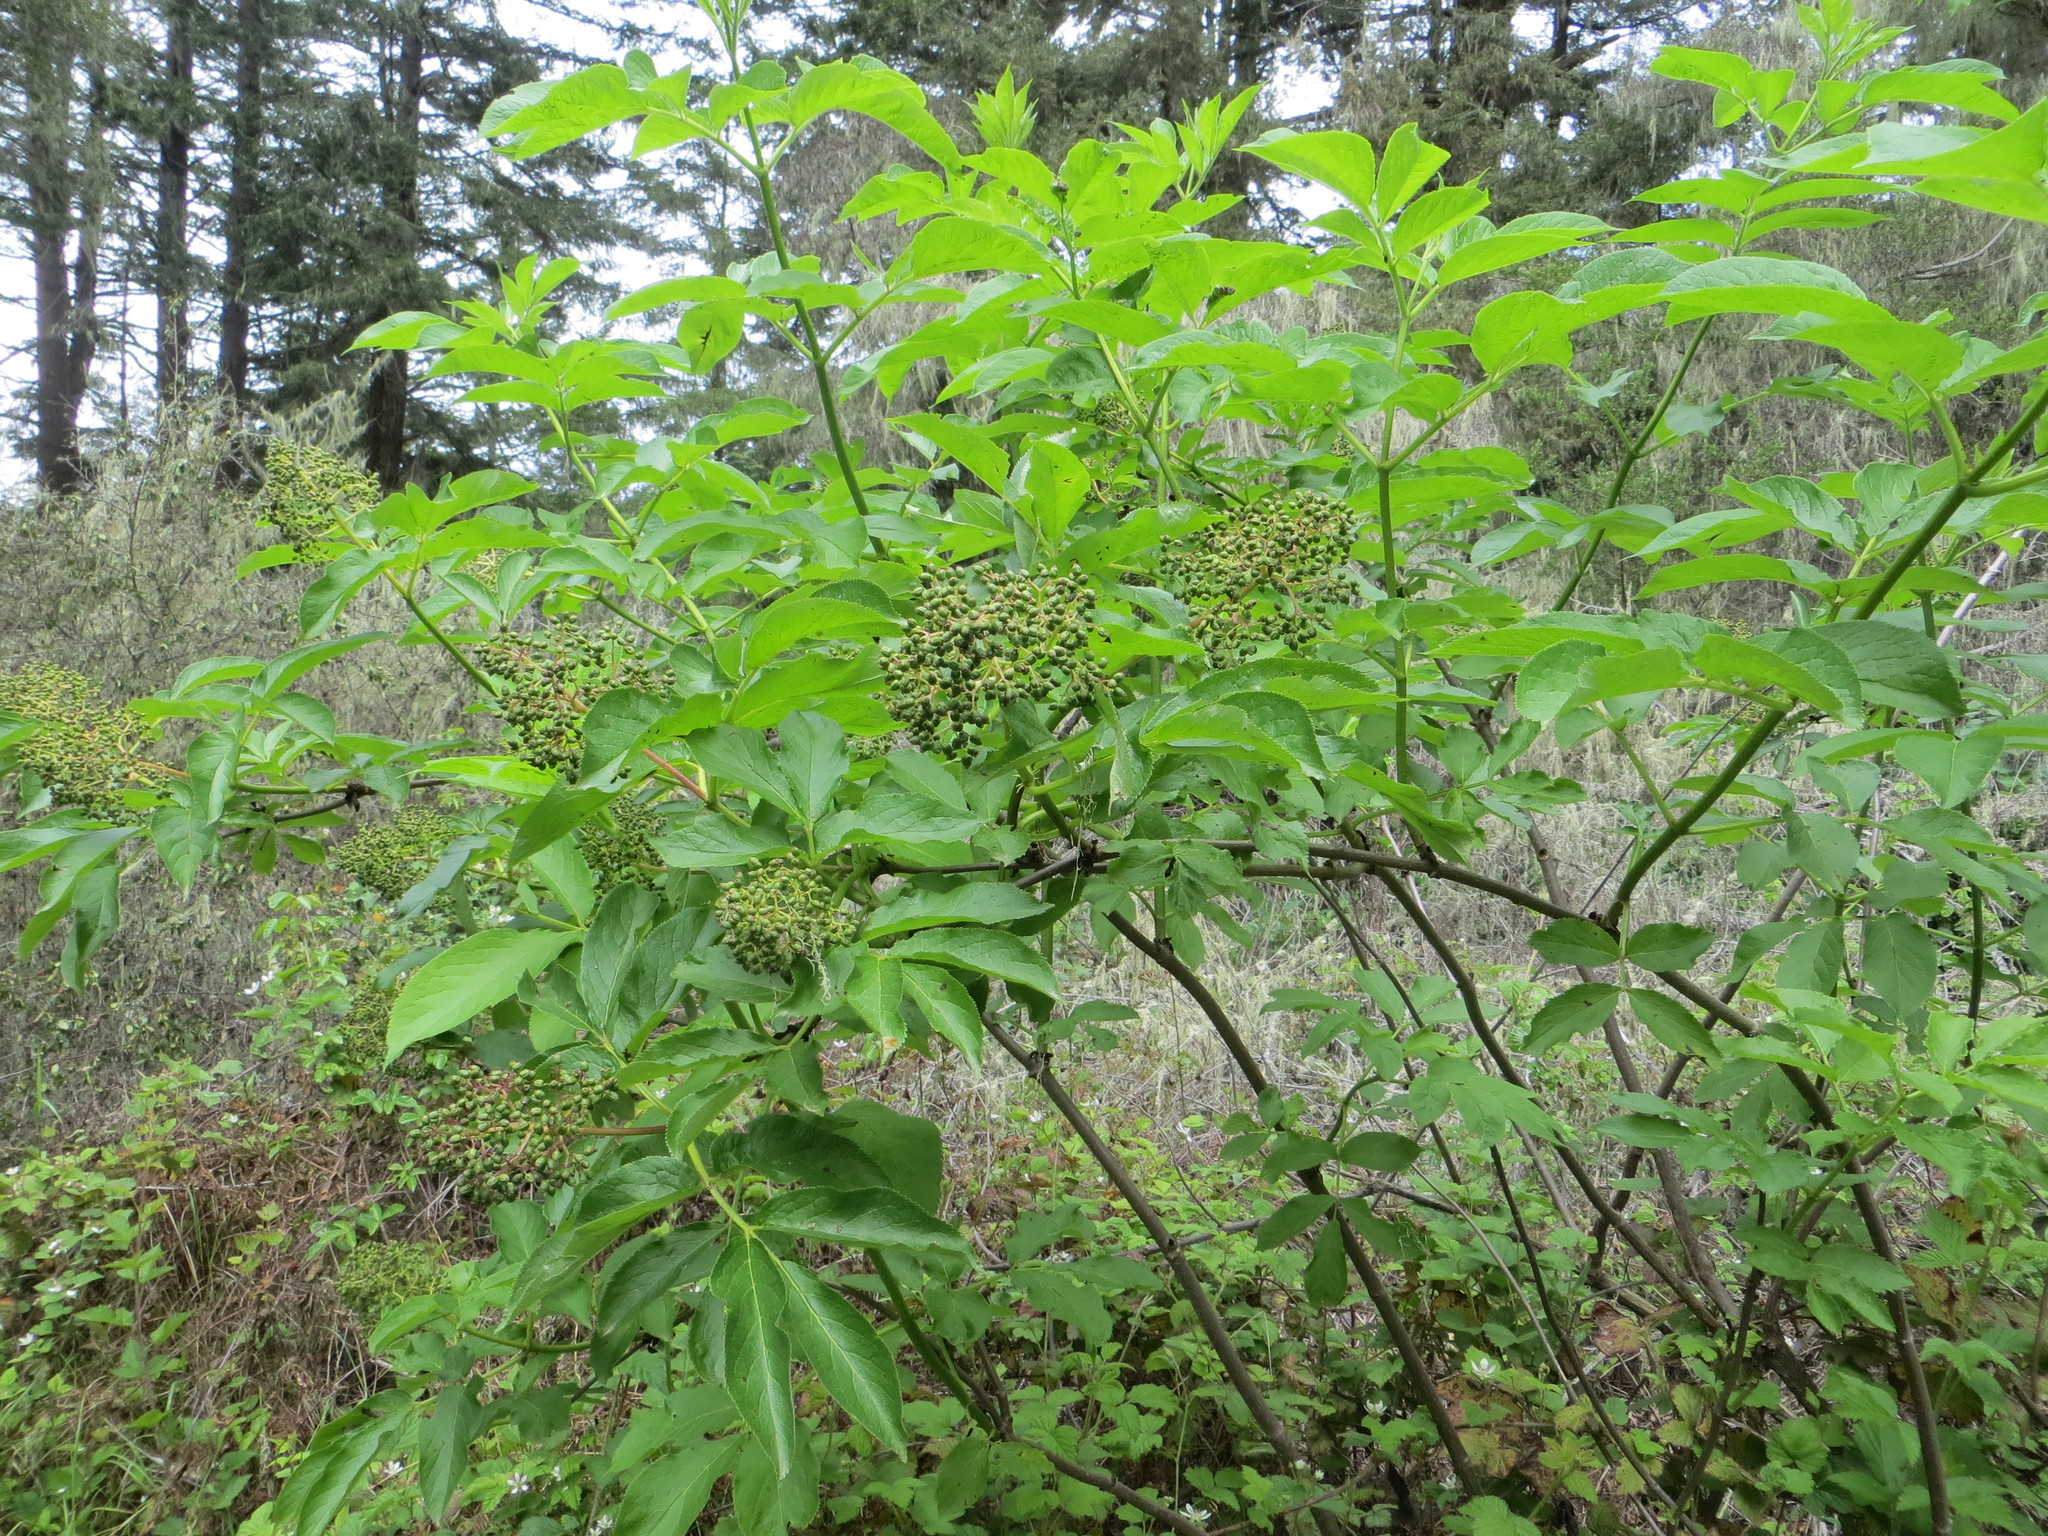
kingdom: Plantae
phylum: Tracheophyta
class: Magnoliopsida
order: Dipsacales
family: Viburnaceae
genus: Sambucus
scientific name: Sambucus racemosa
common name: Red-berried elder
